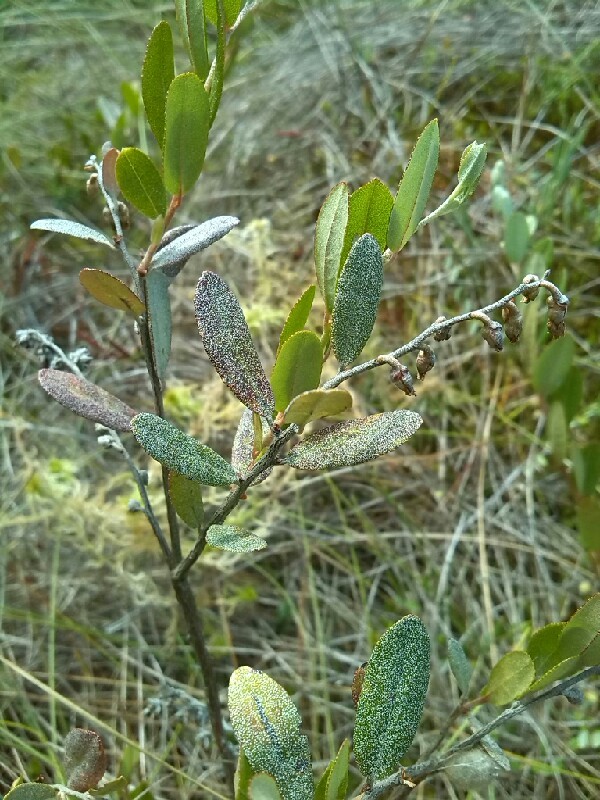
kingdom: Plantae
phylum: Tracheophyta
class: Magnoliopsida
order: Ericales
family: Ericaceae
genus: Chamaedaphne
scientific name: Chamaedaphne calyculata
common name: Leatherleaf
